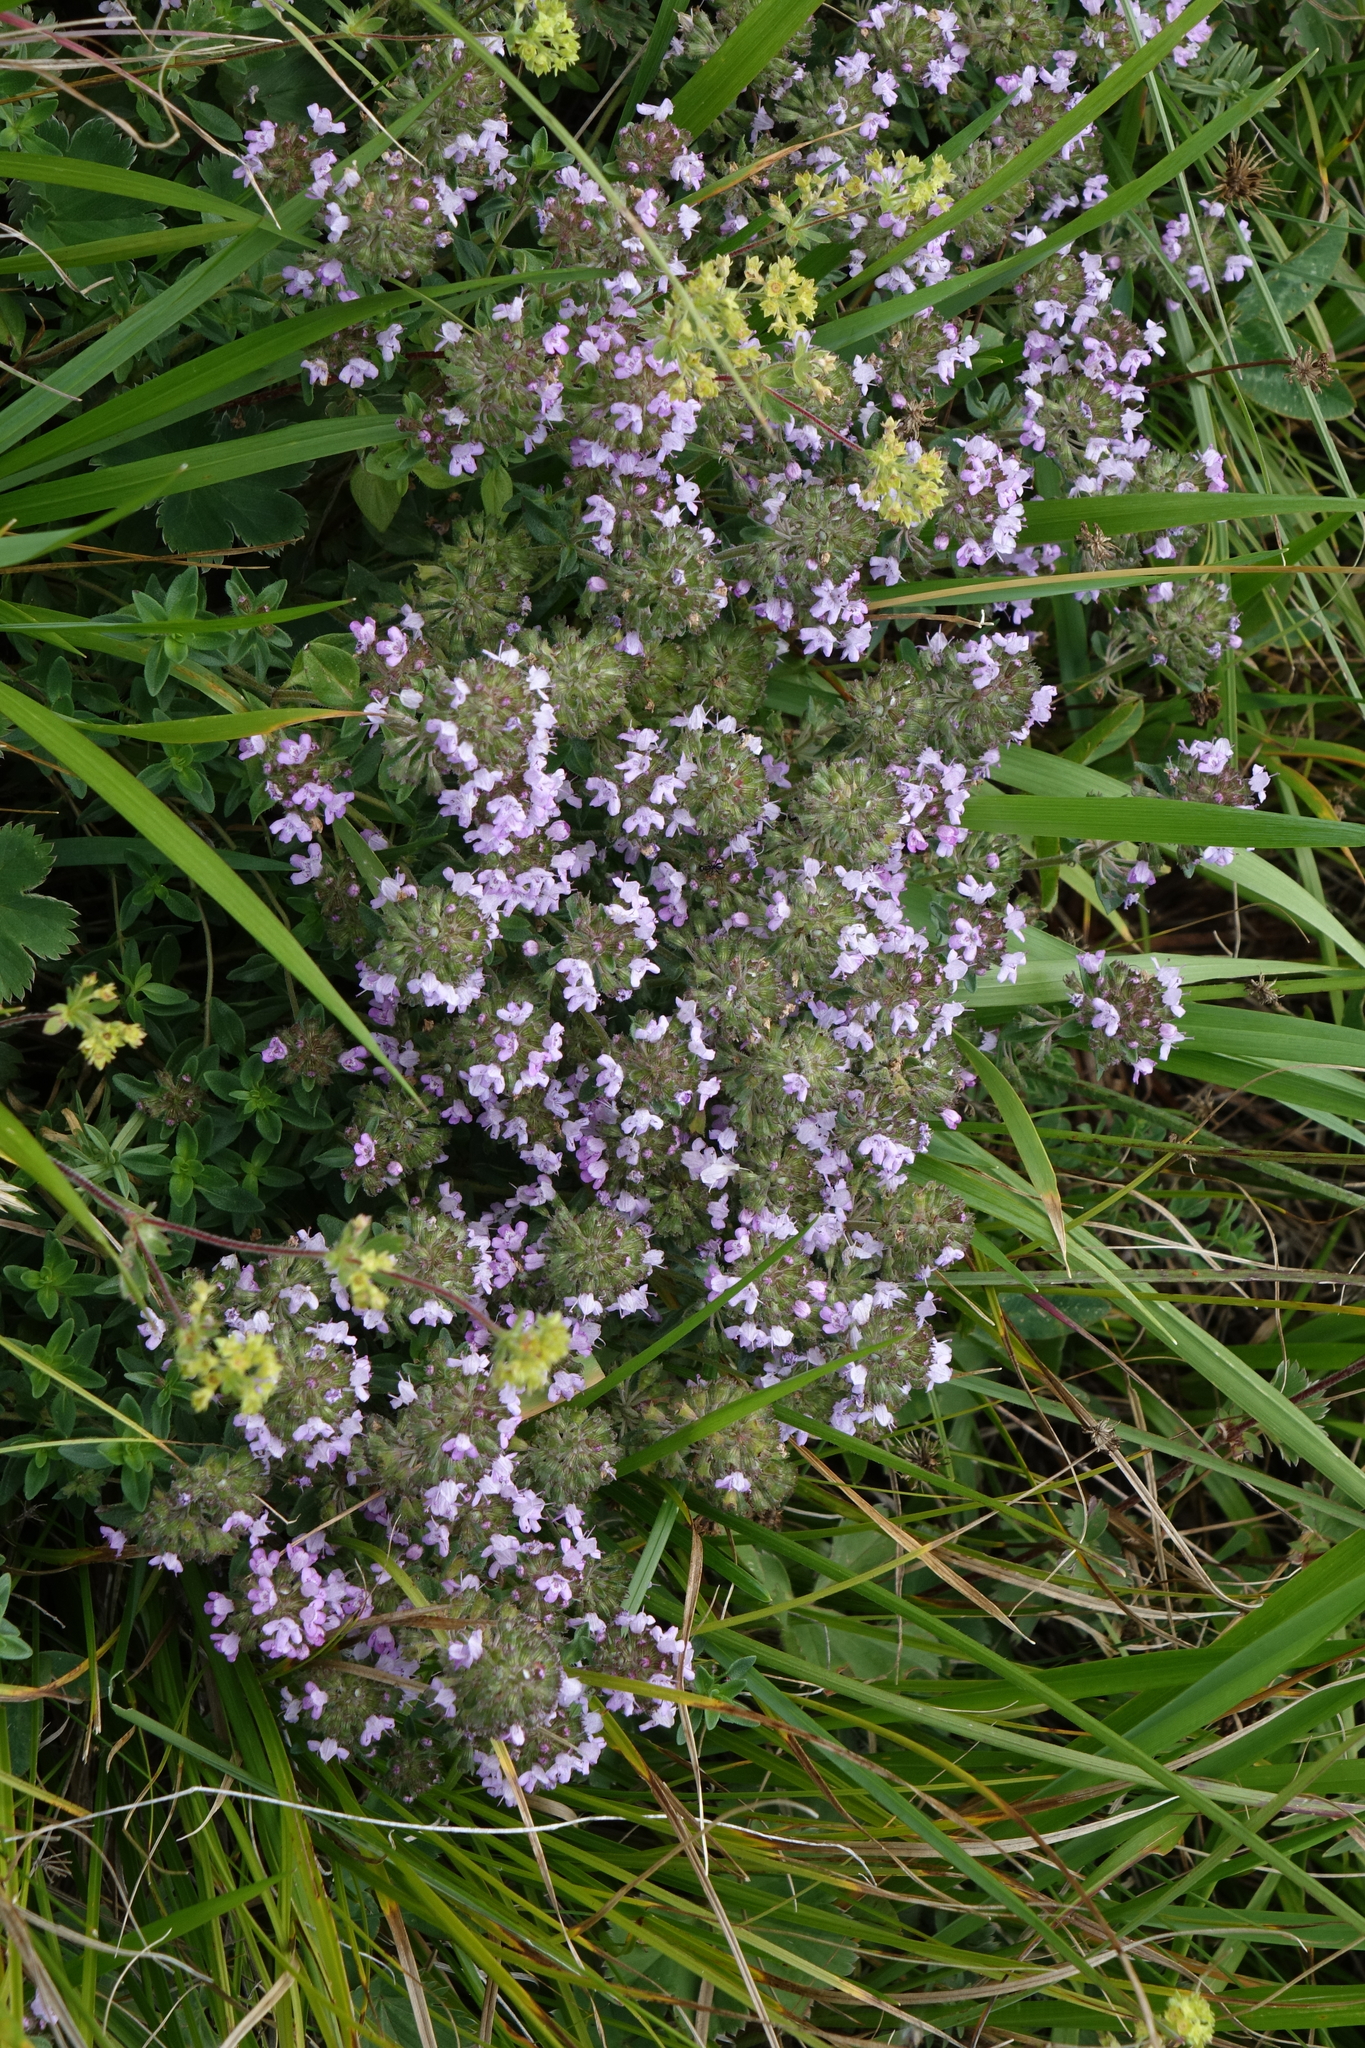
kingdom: Plantae
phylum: Tracheophyta
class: Magnoliopsida
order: Lamiales
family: Lamiaceae
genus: Thymus
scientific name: Thymus pannonicus
